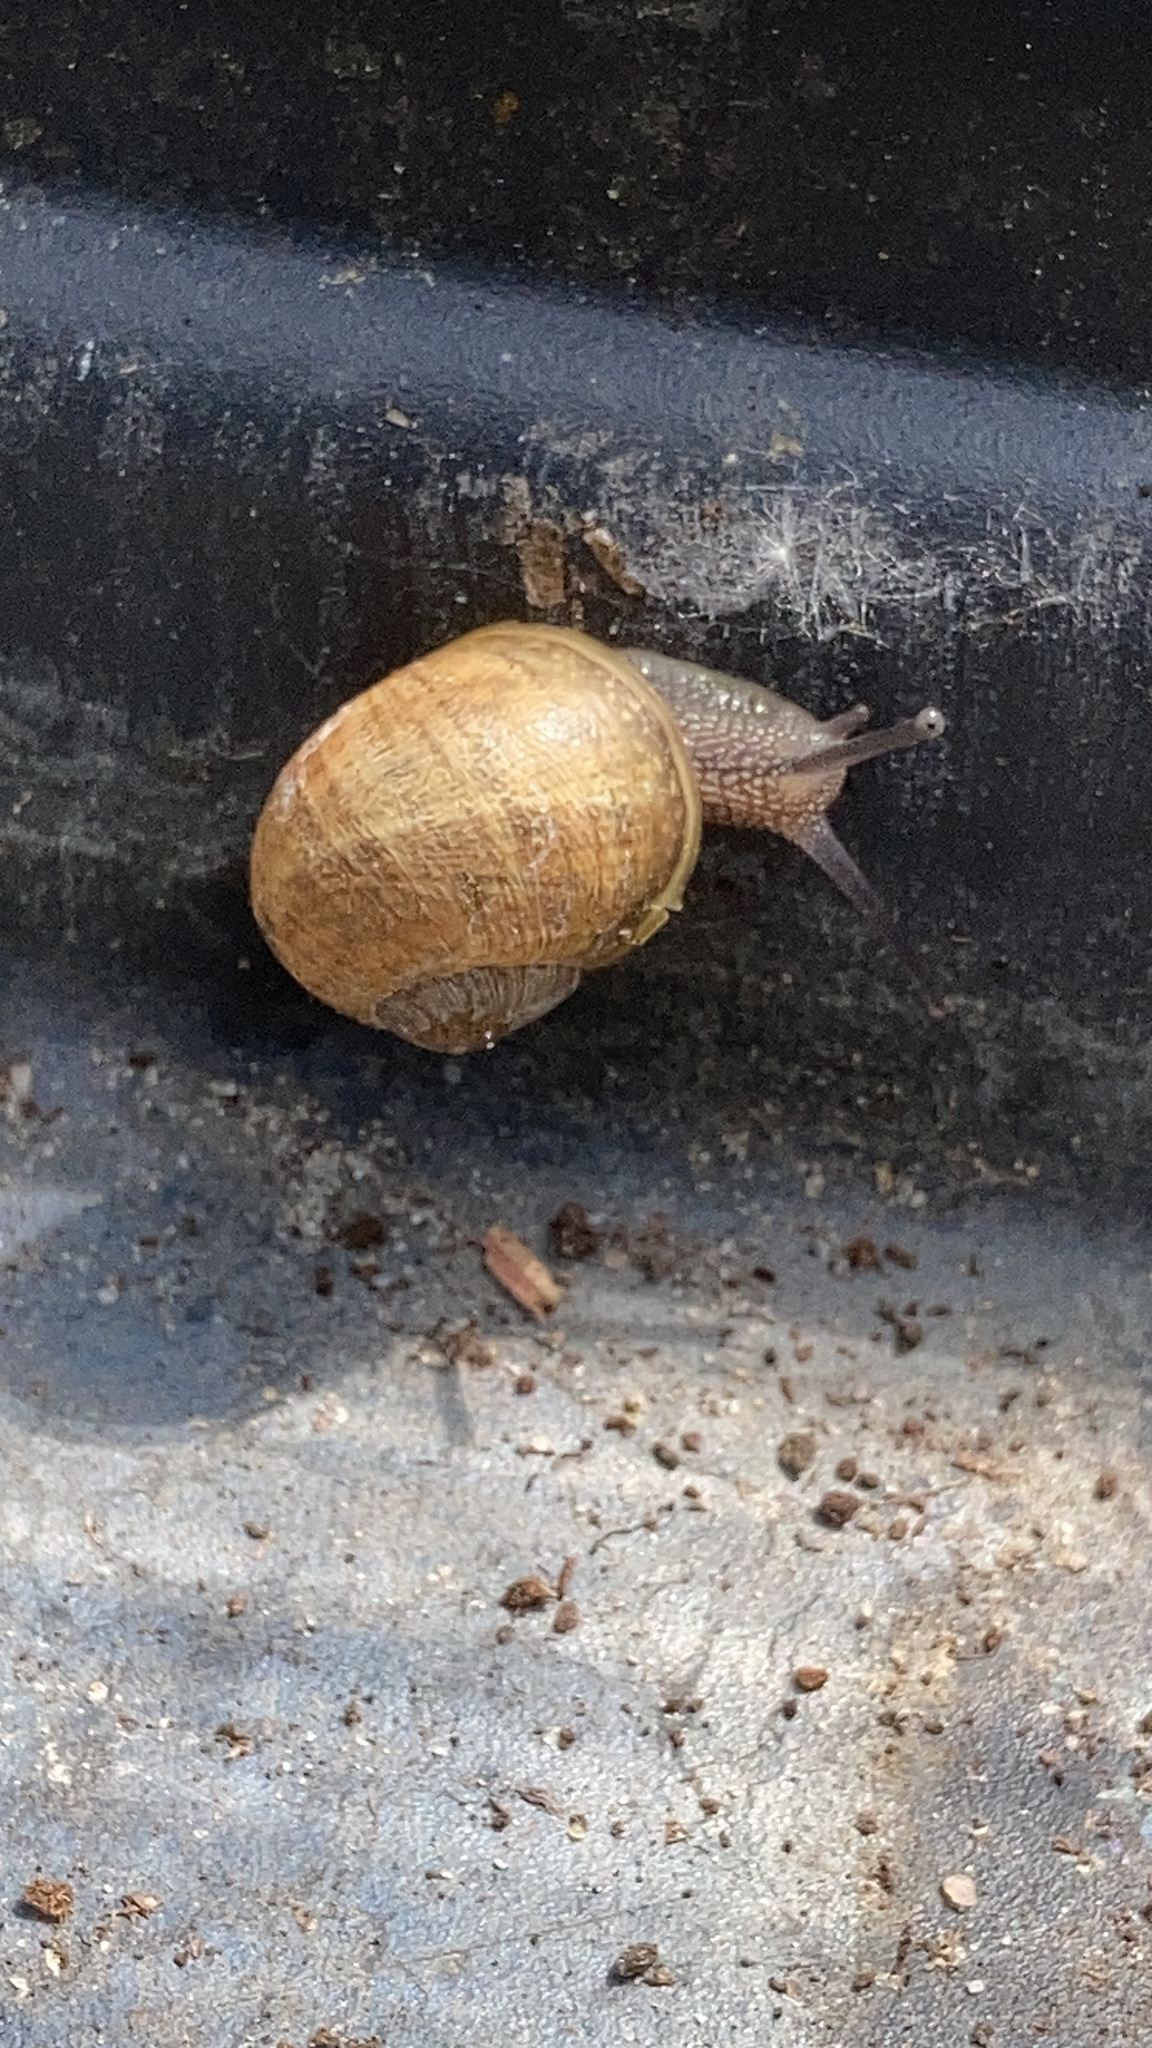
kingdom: Animalia
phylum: Mollusca
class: Gastropoda
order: Stylommatophora
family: Helicidae
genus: Cornu
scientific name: Cornu aspersum
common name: Brown garden snail
